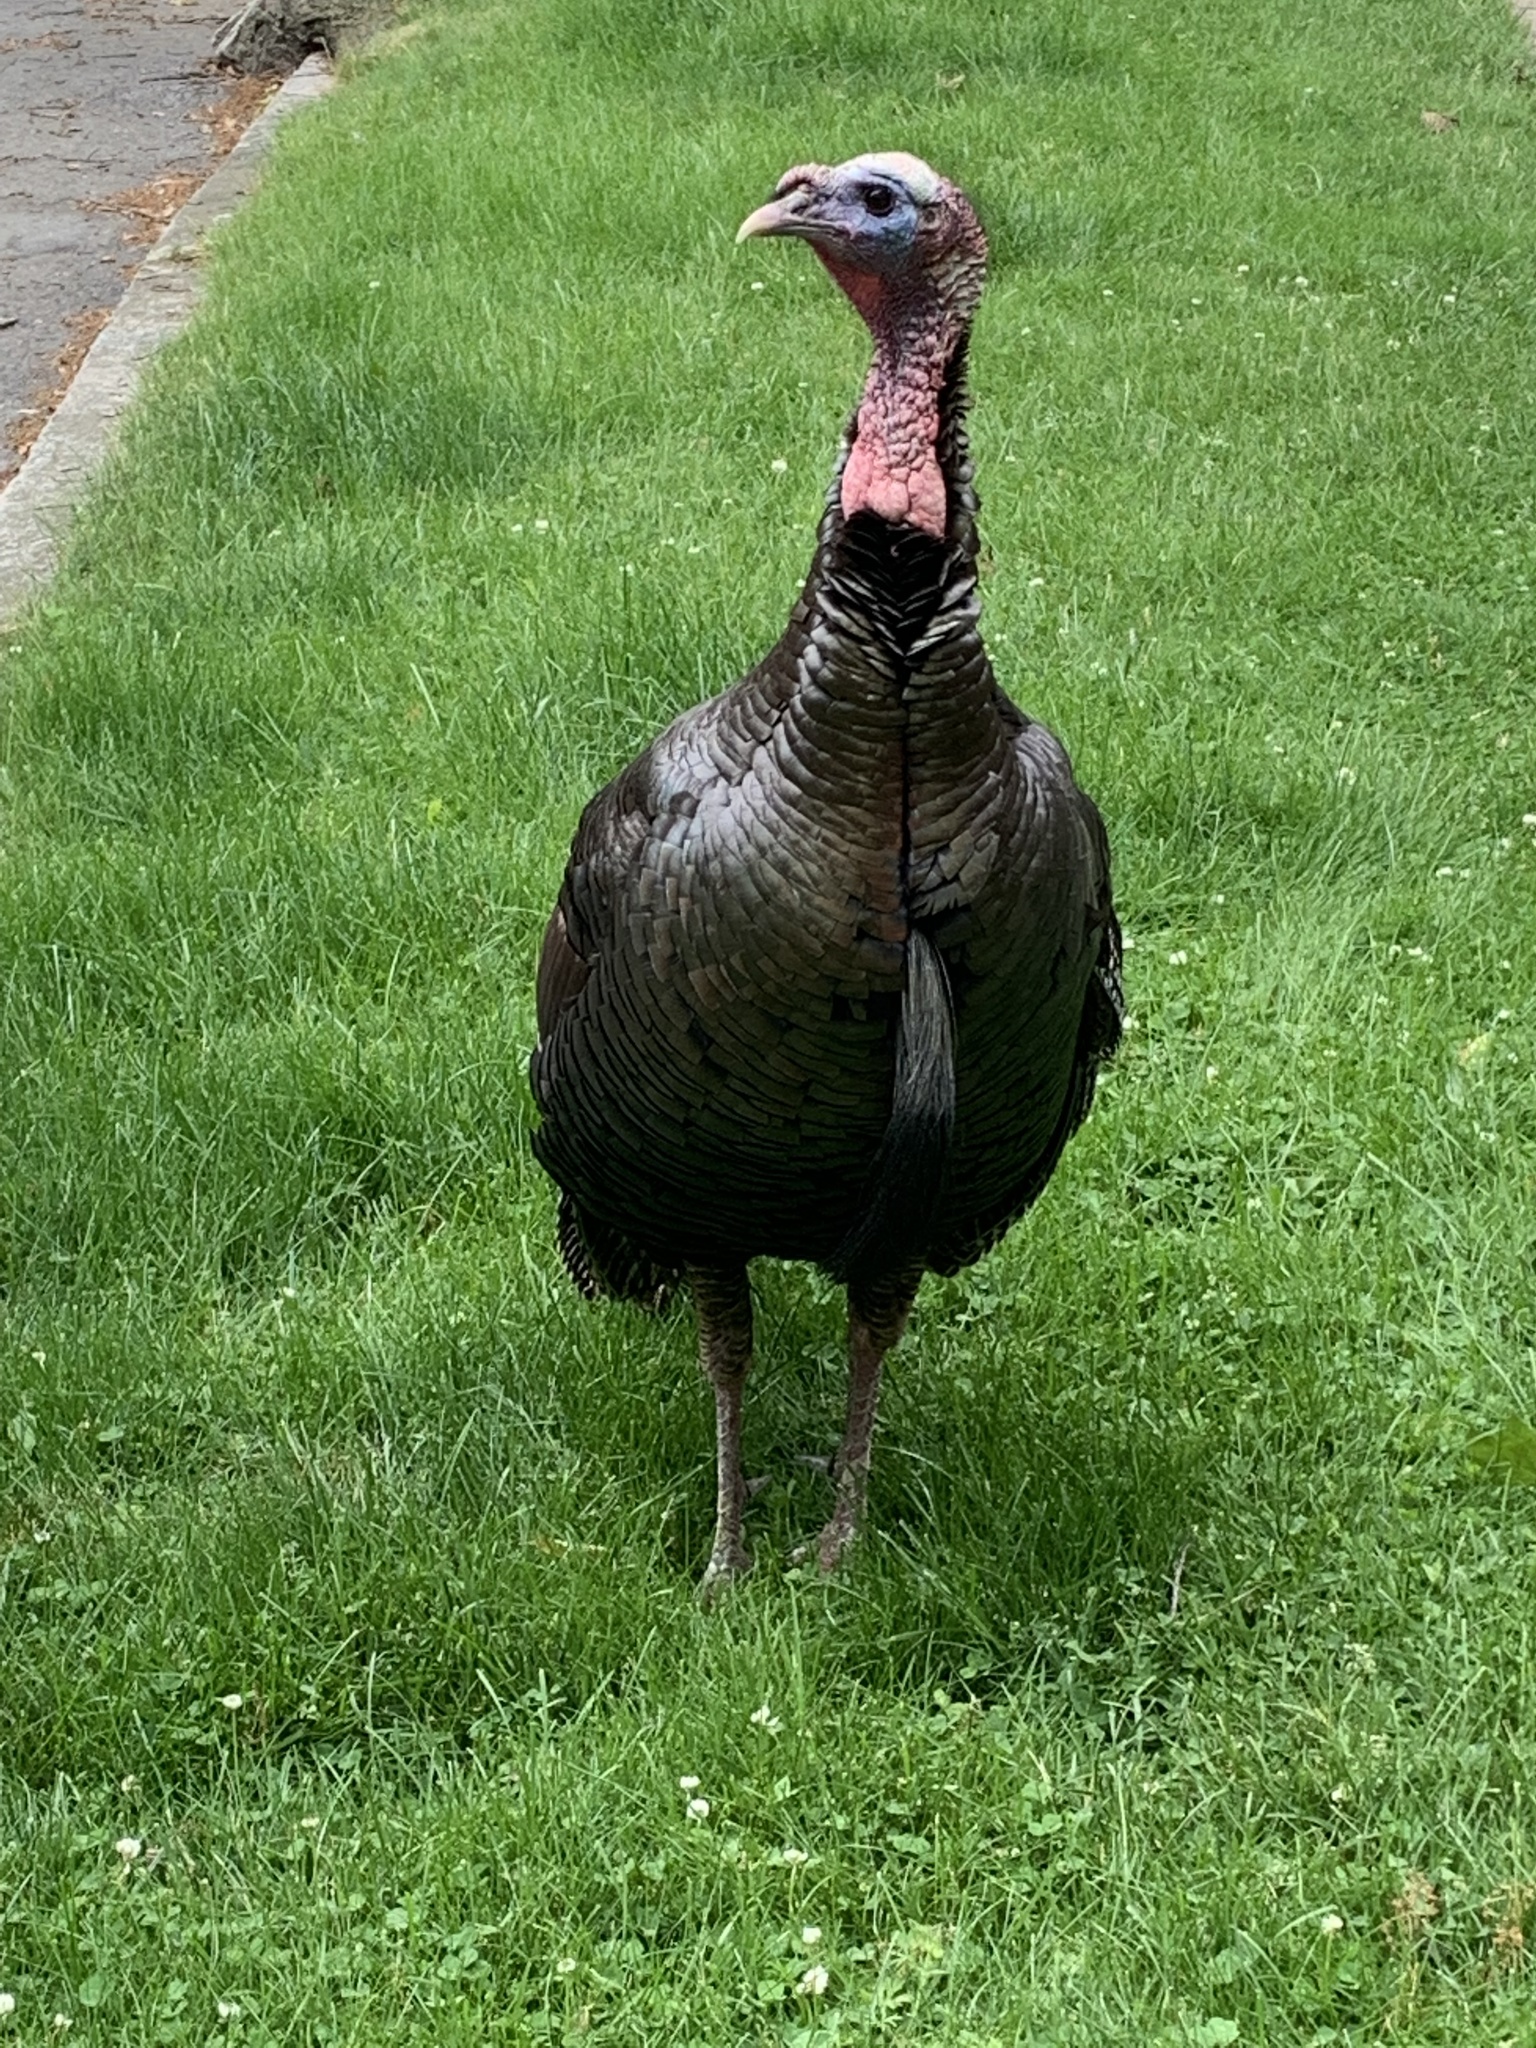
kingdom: Animalia
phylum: Chordata
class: Aves
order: Galliformes
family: Phasianidae
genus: Meleagris
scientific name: Meleagris gallopavo
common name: Wild turkey
